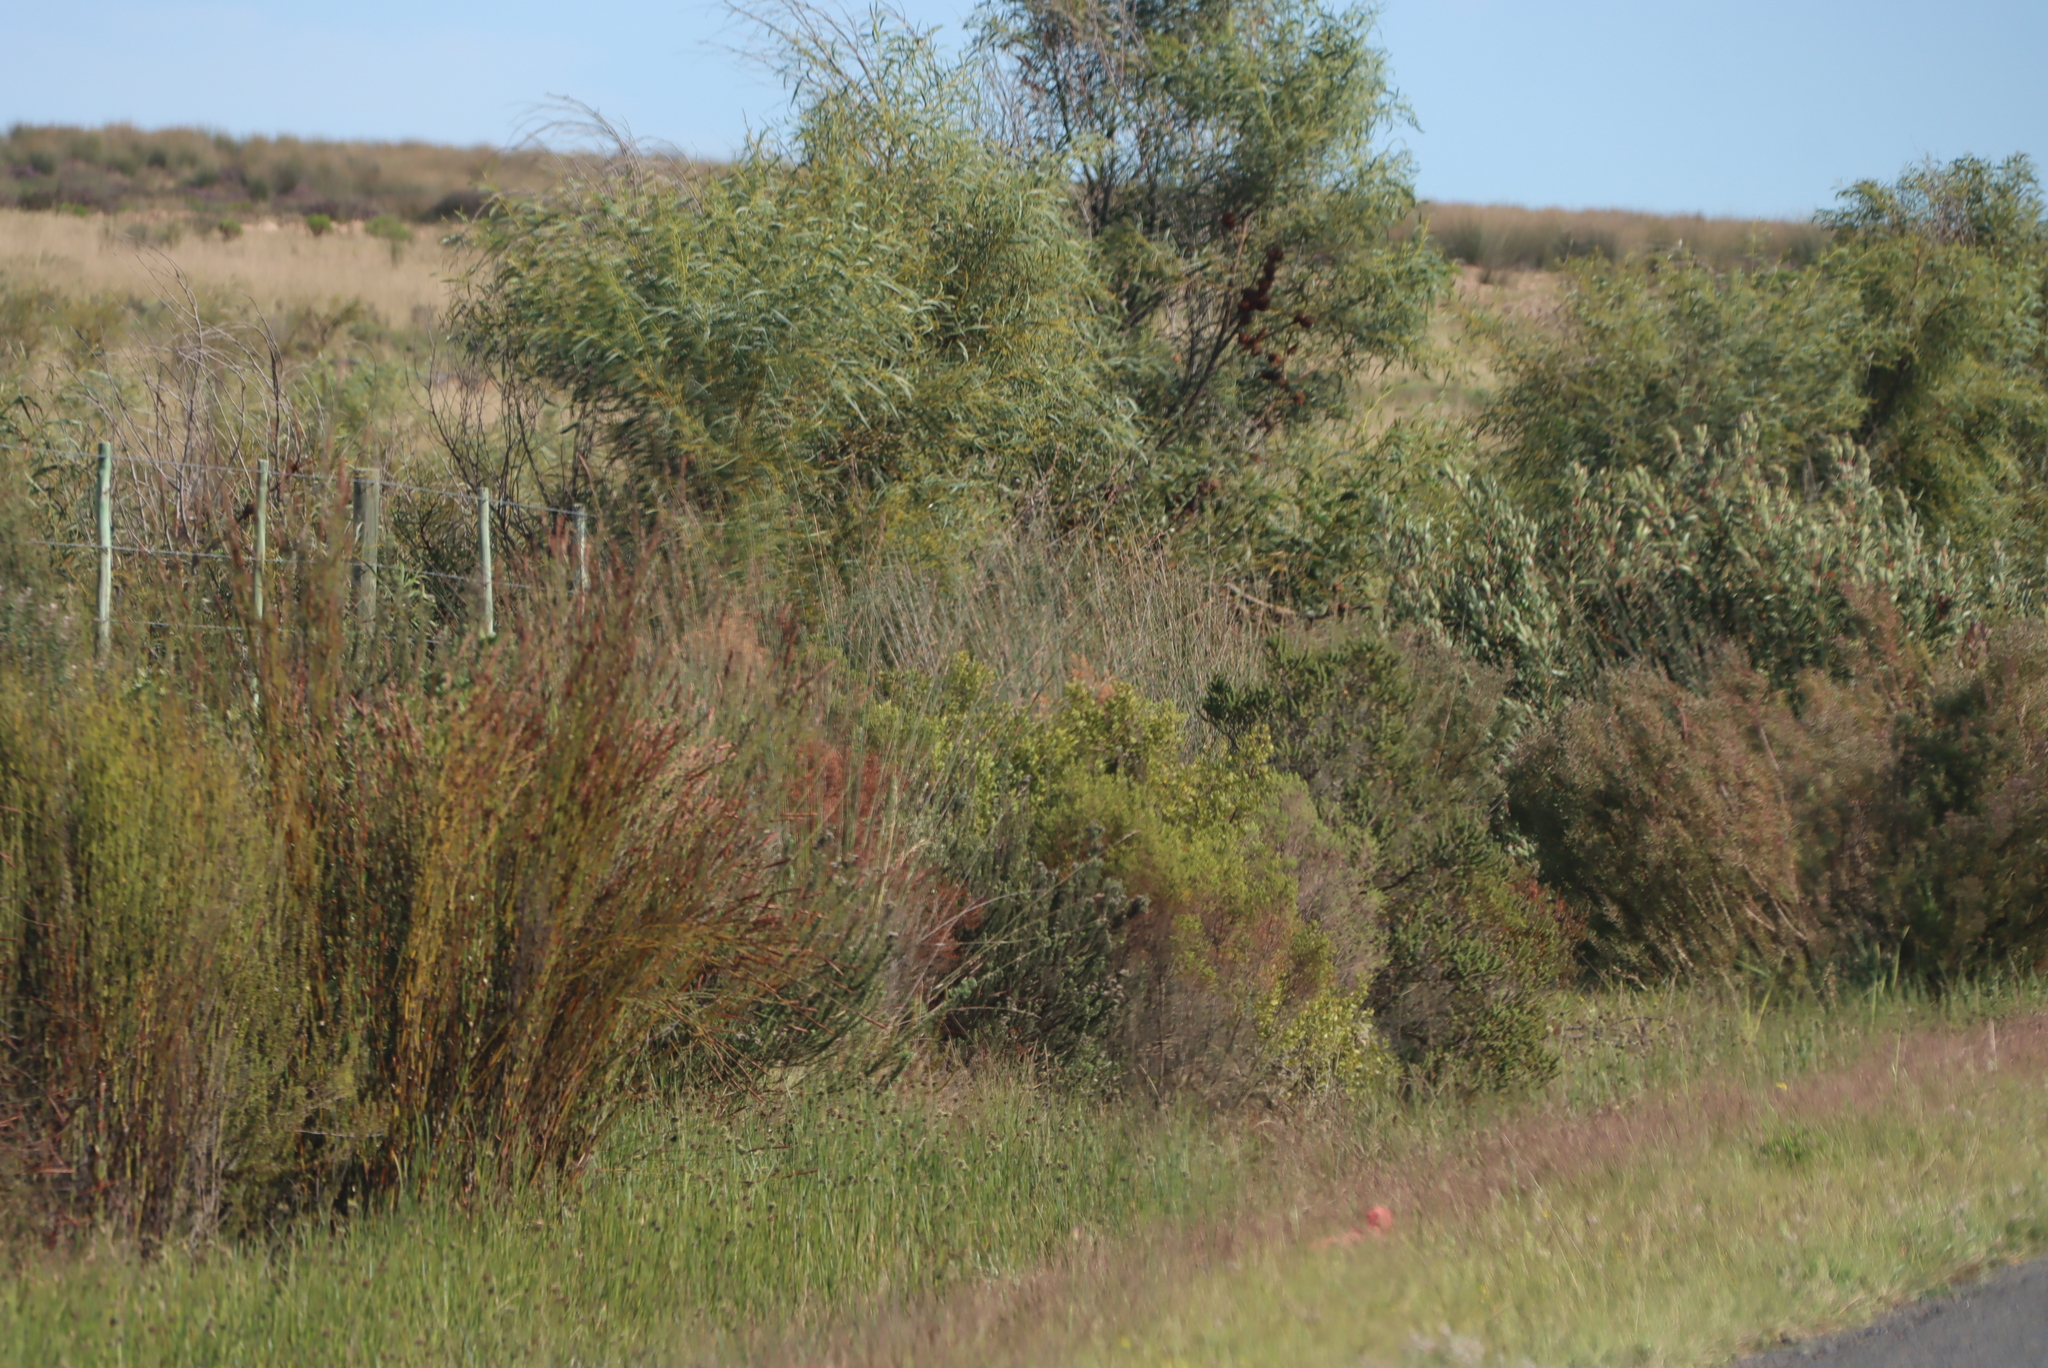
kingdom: Plantae
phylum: Tracheophyta
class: Magnoliopsida
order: Fabales
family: Fabaceae
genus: Acacia
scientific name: Acacia saligna
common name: Orange wattle
